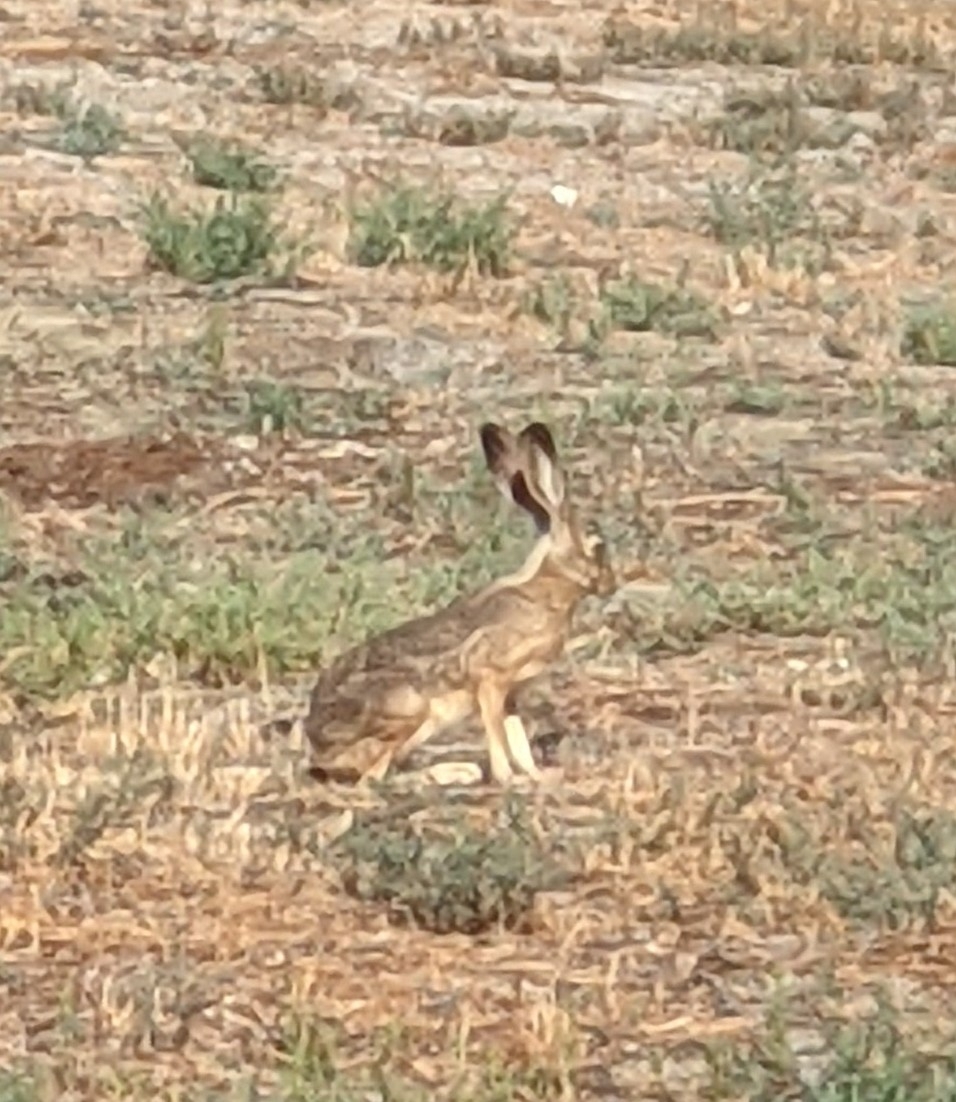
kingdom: Animalia
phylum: Chordata
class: Mammalia
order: Lagomorpha
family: Leporidae
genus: Lepus
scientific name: Lepus californicus
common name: Black-tailed jackrabbit
